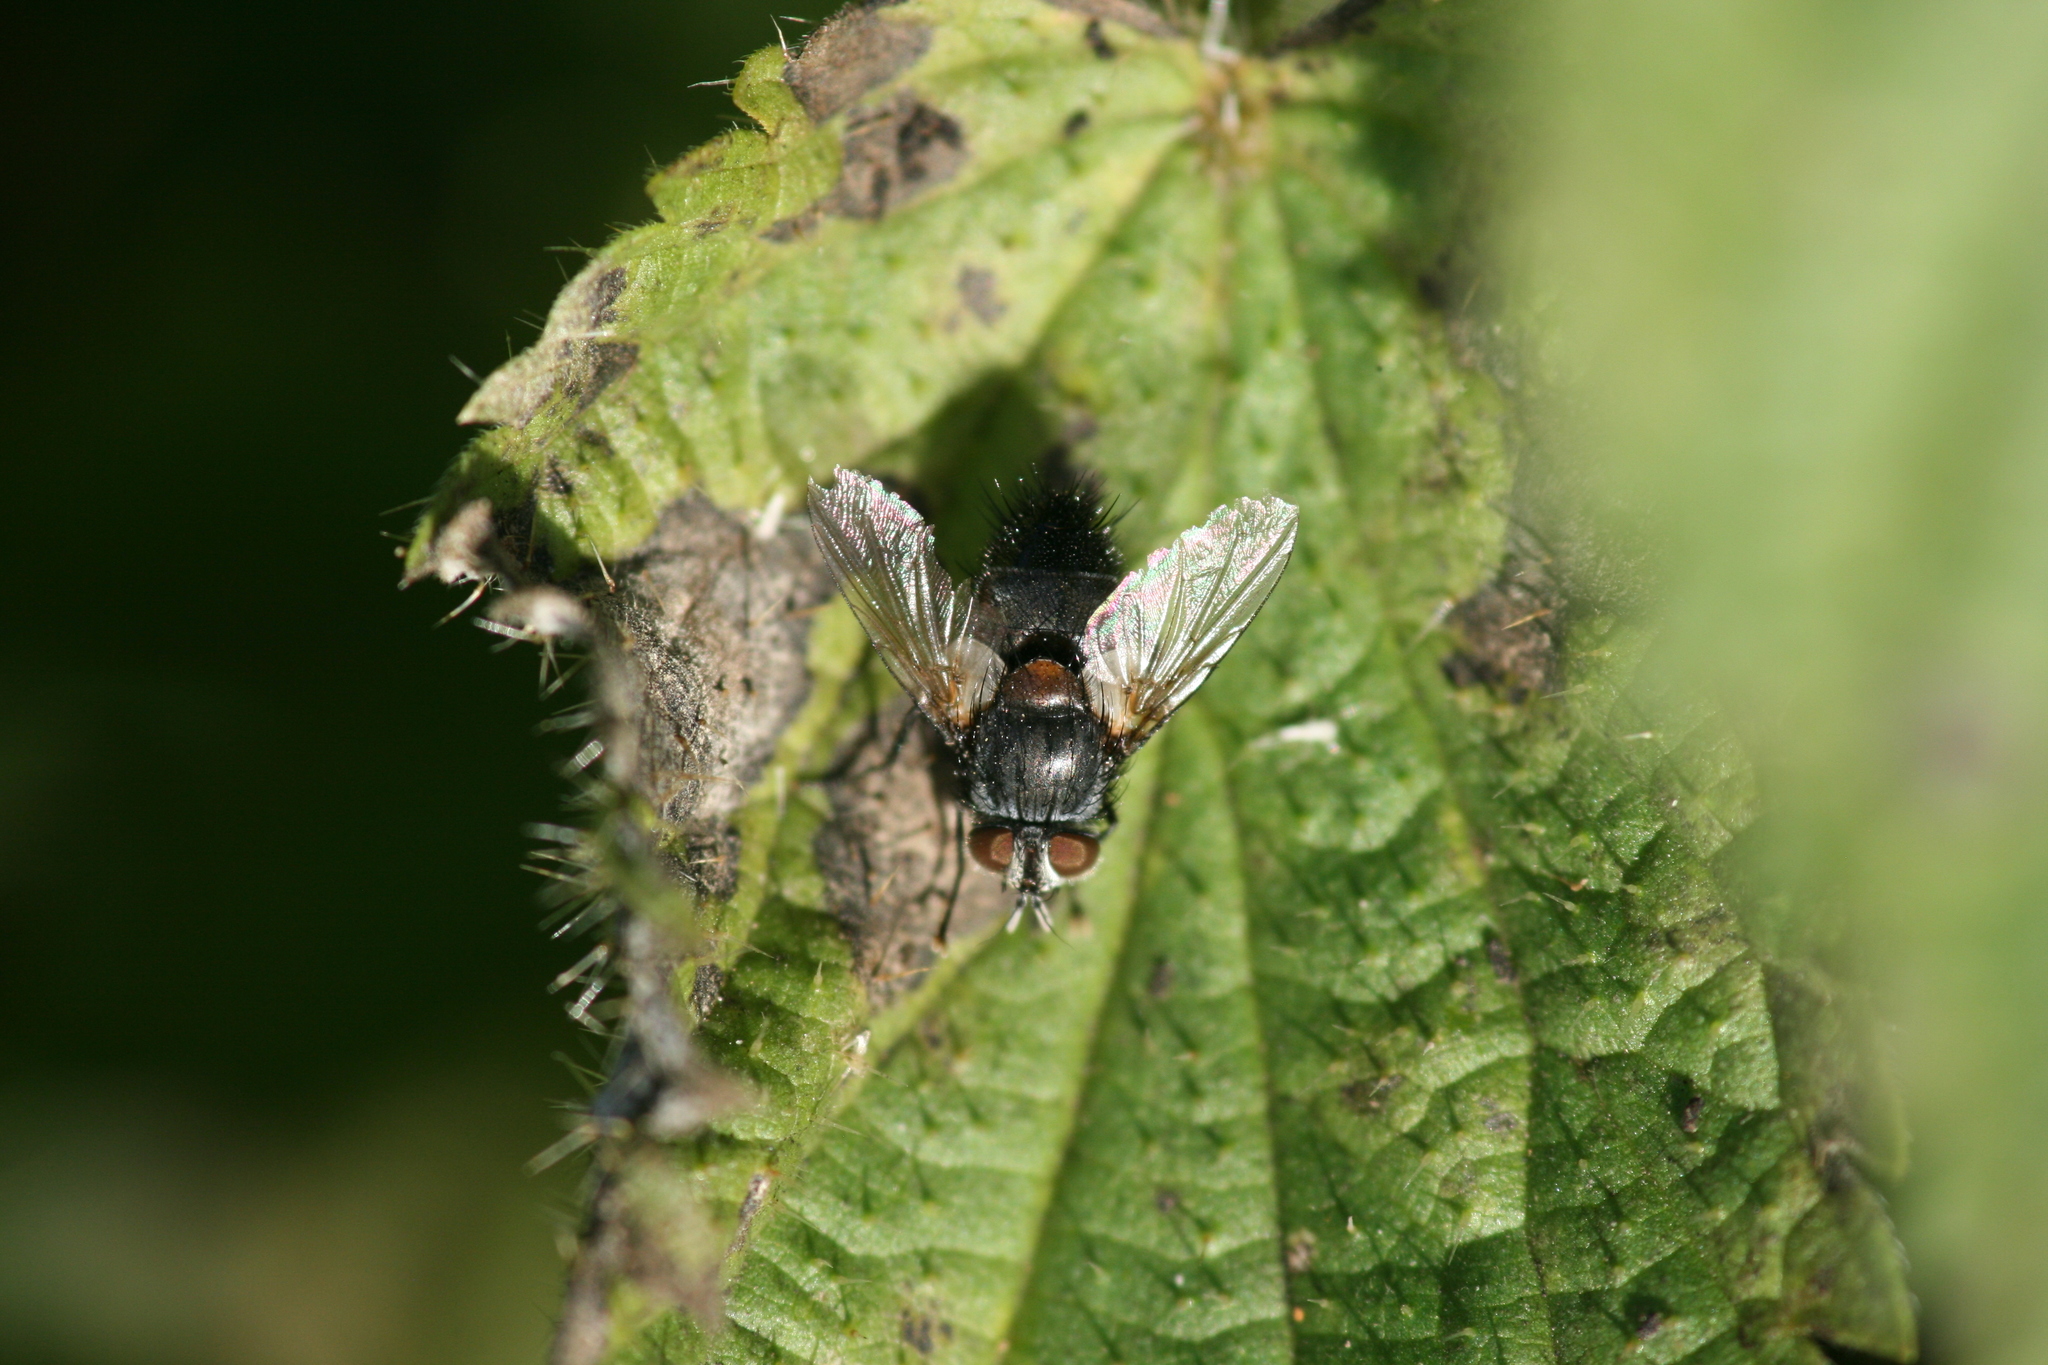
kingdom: Animalia
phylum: Arthropoda
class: Insecta
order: Diptera
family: Tachinidae
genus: Aplomya
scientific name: Aplomya confinis
